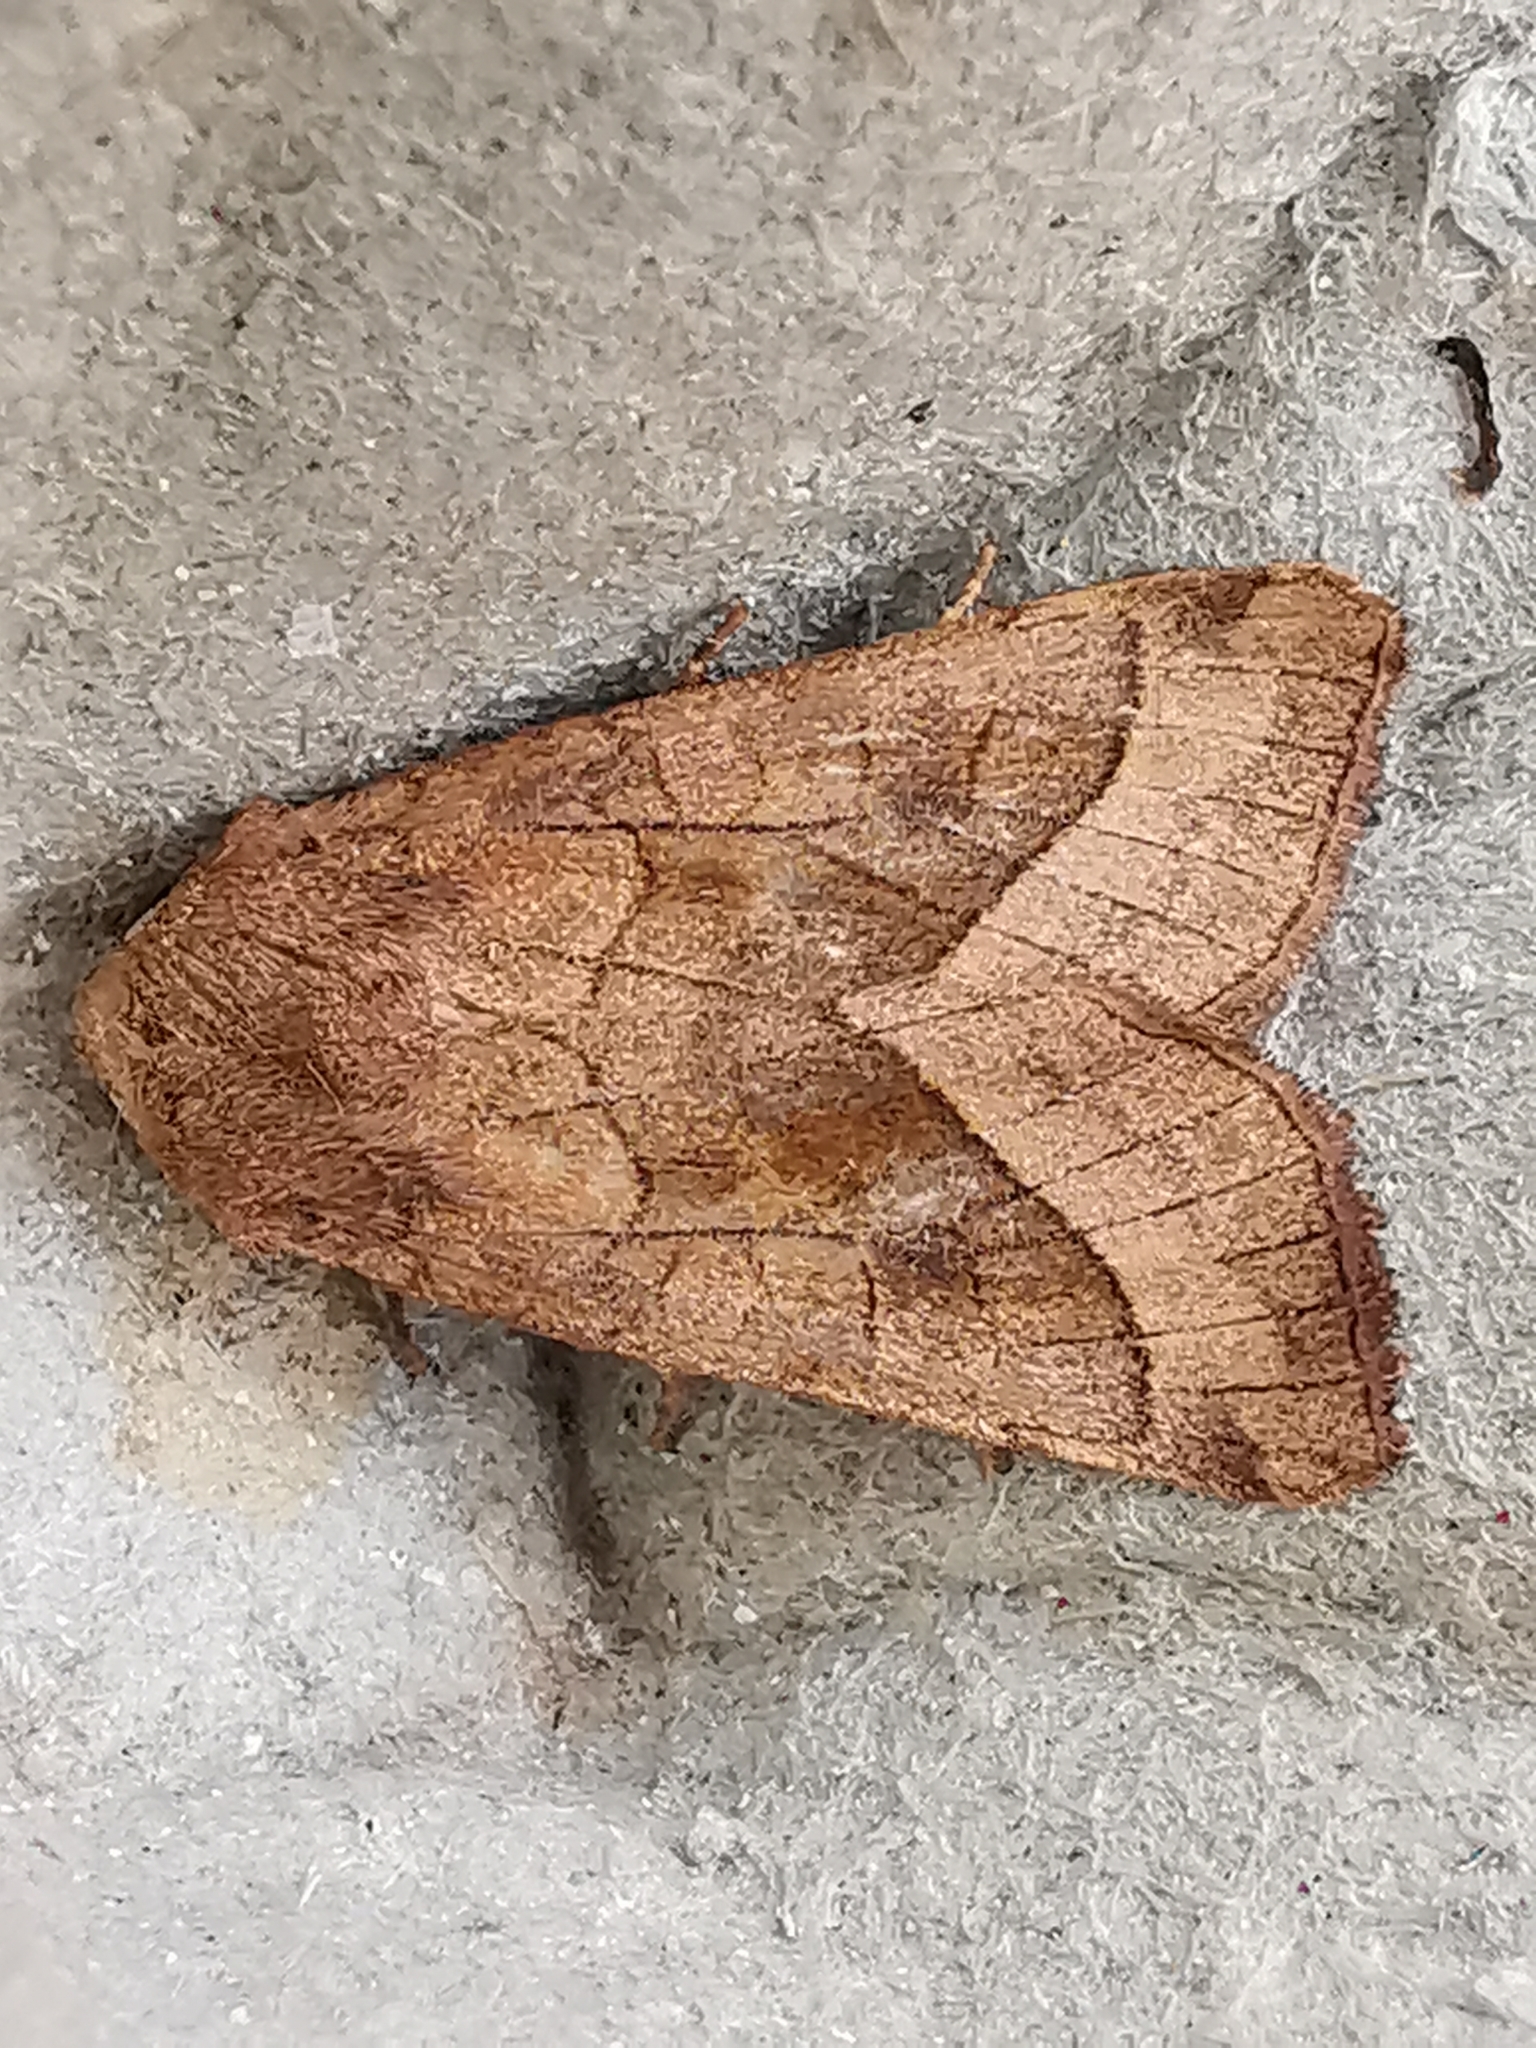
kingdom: Animalia
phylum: Arthropoda
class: Insecta
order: Lepidoptera
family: Noctuidae
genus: Hydraecia
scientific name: Hydraecia micacea
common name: Rosy rustic
